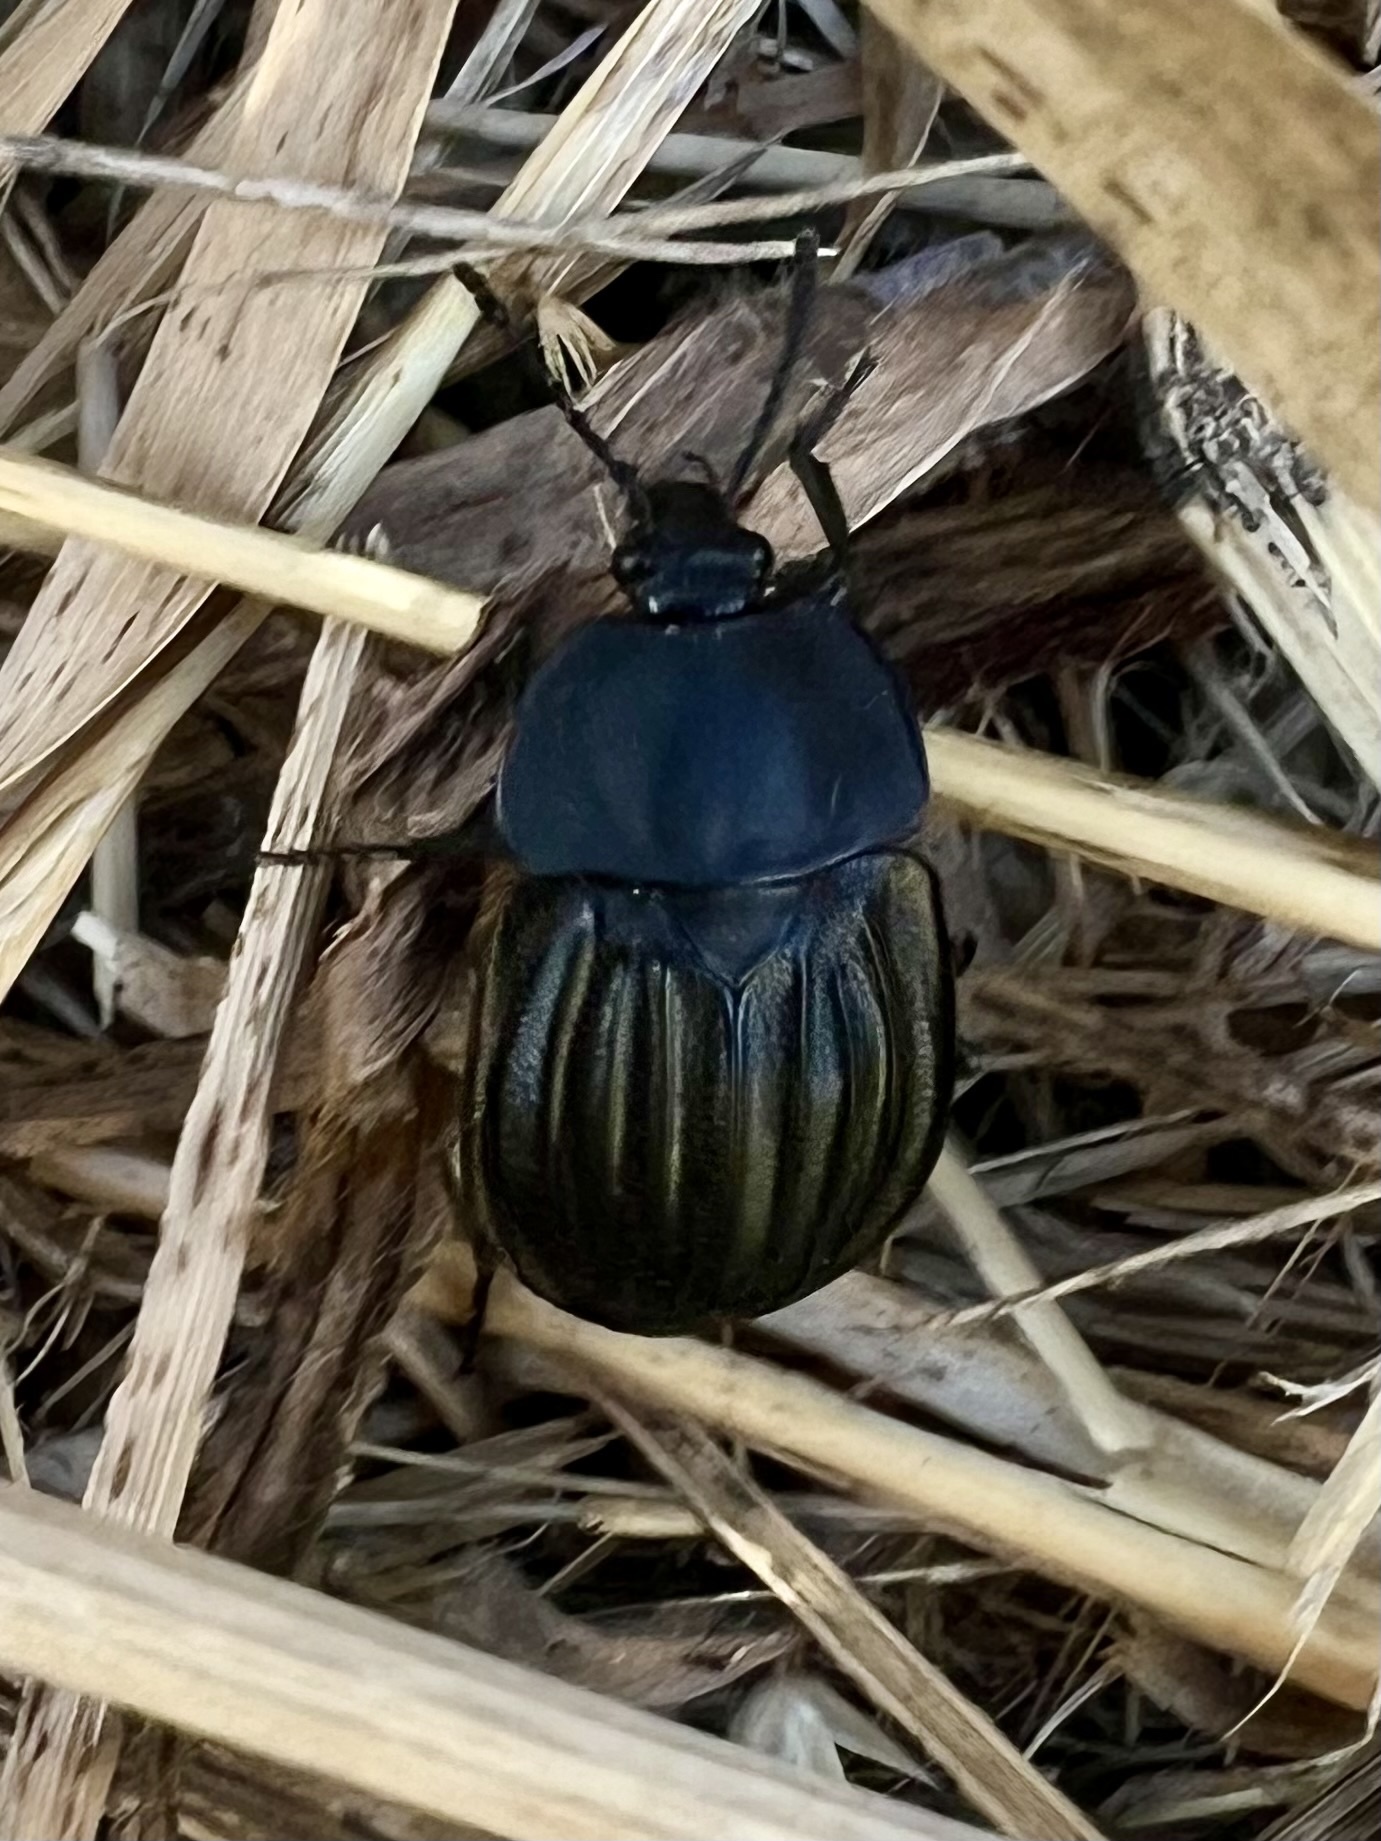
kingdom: Animalia
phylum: Arthropoda
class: Insecta
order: Coleoptera
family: Staphylinidae
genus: Silpha
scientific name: Silpha capicola
